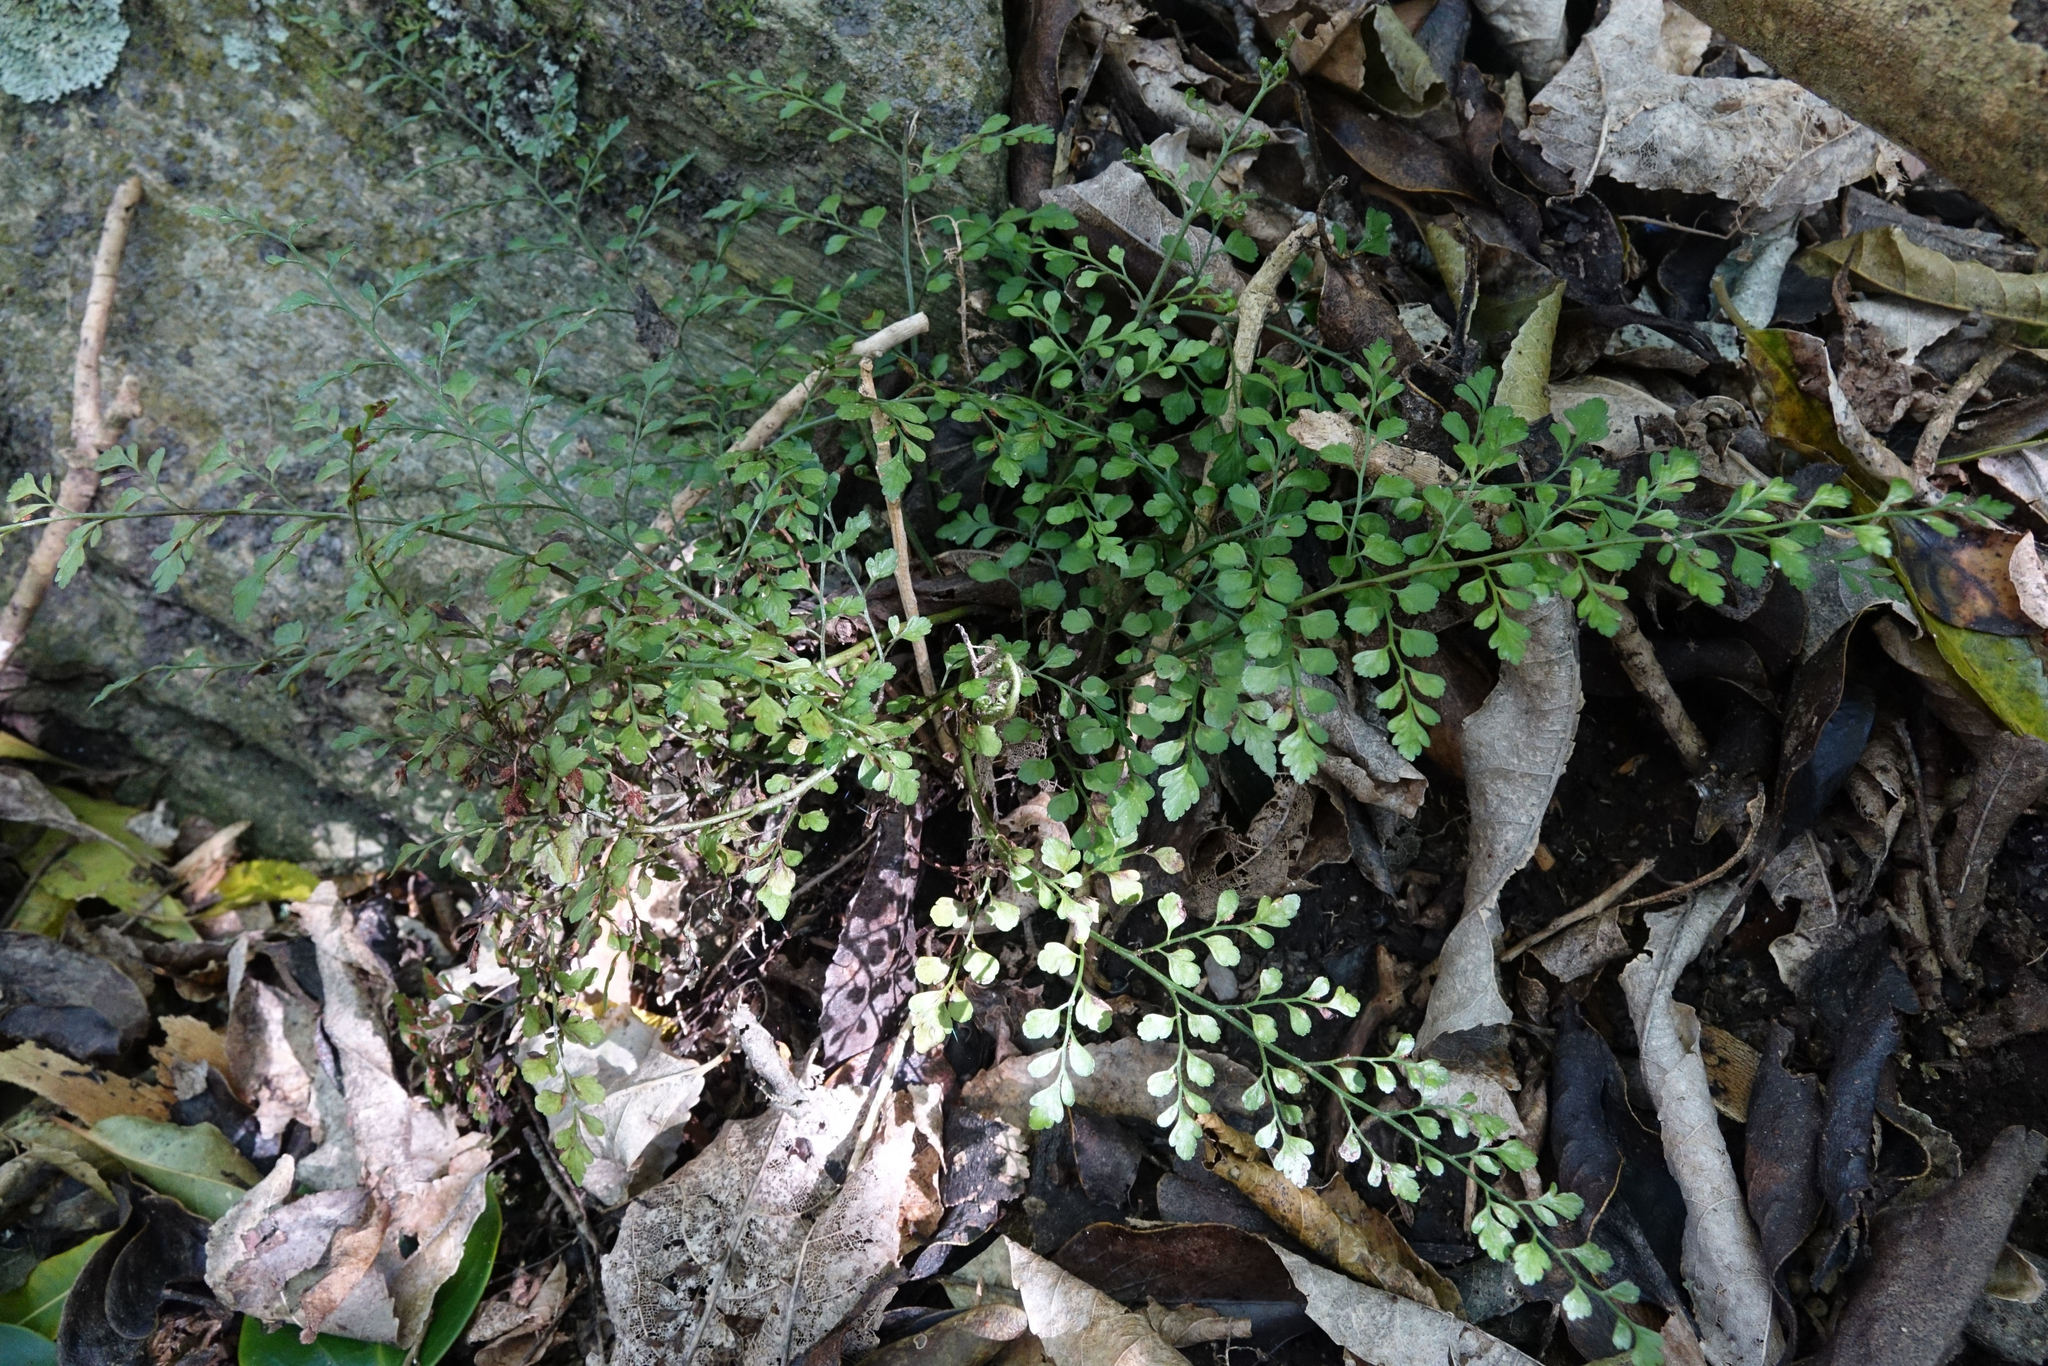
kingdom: Plantae
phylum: Tracheophyta
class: Polypodiopsida
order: Polypodiales
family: Aspleniaceae
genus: Asplenium
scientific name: Asplenium hookerianum
